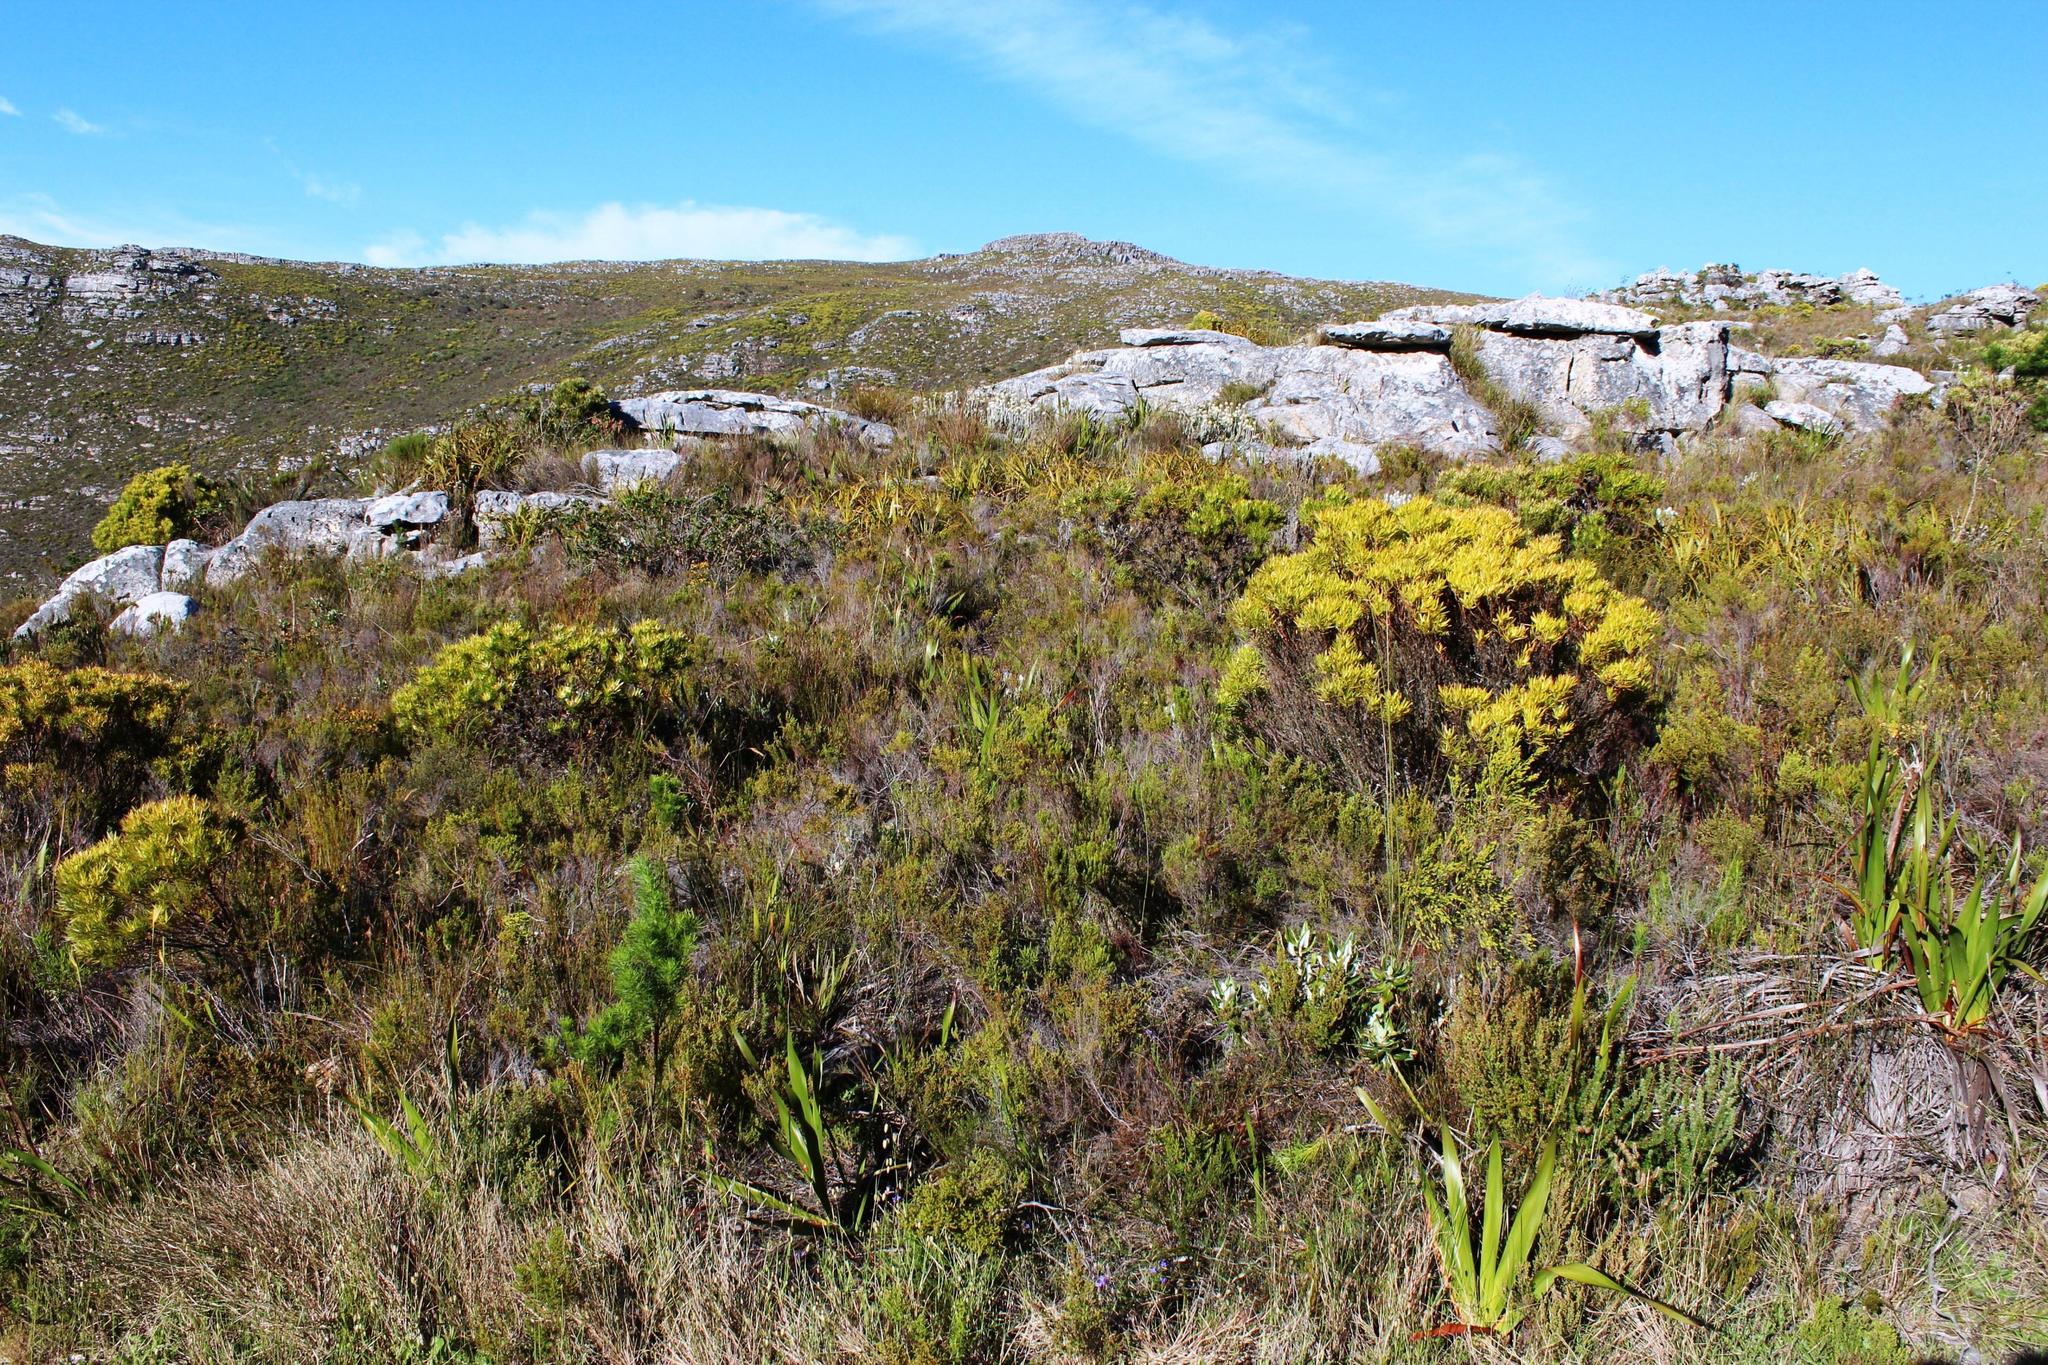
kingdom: Plantae
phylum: Tracheophyta
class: Magnoliopsida
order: Proteales
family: Proteaceae
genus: Hakea
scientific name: Hakea gibbosa
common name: Rock hakea
